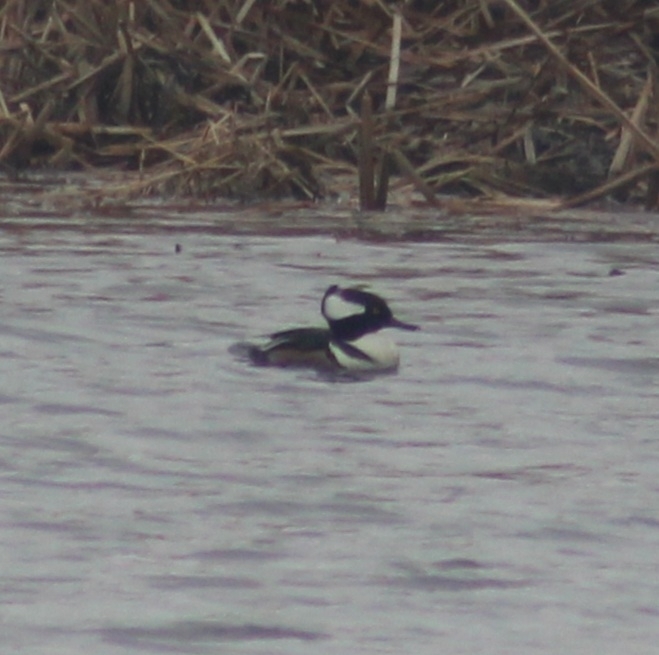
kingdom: Animalia
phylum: Chordata
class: Aves
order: Anseriformes
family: Anatidae
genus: Lophodytes
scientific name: Lophodytes cucullatus
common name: Hooded merganser
